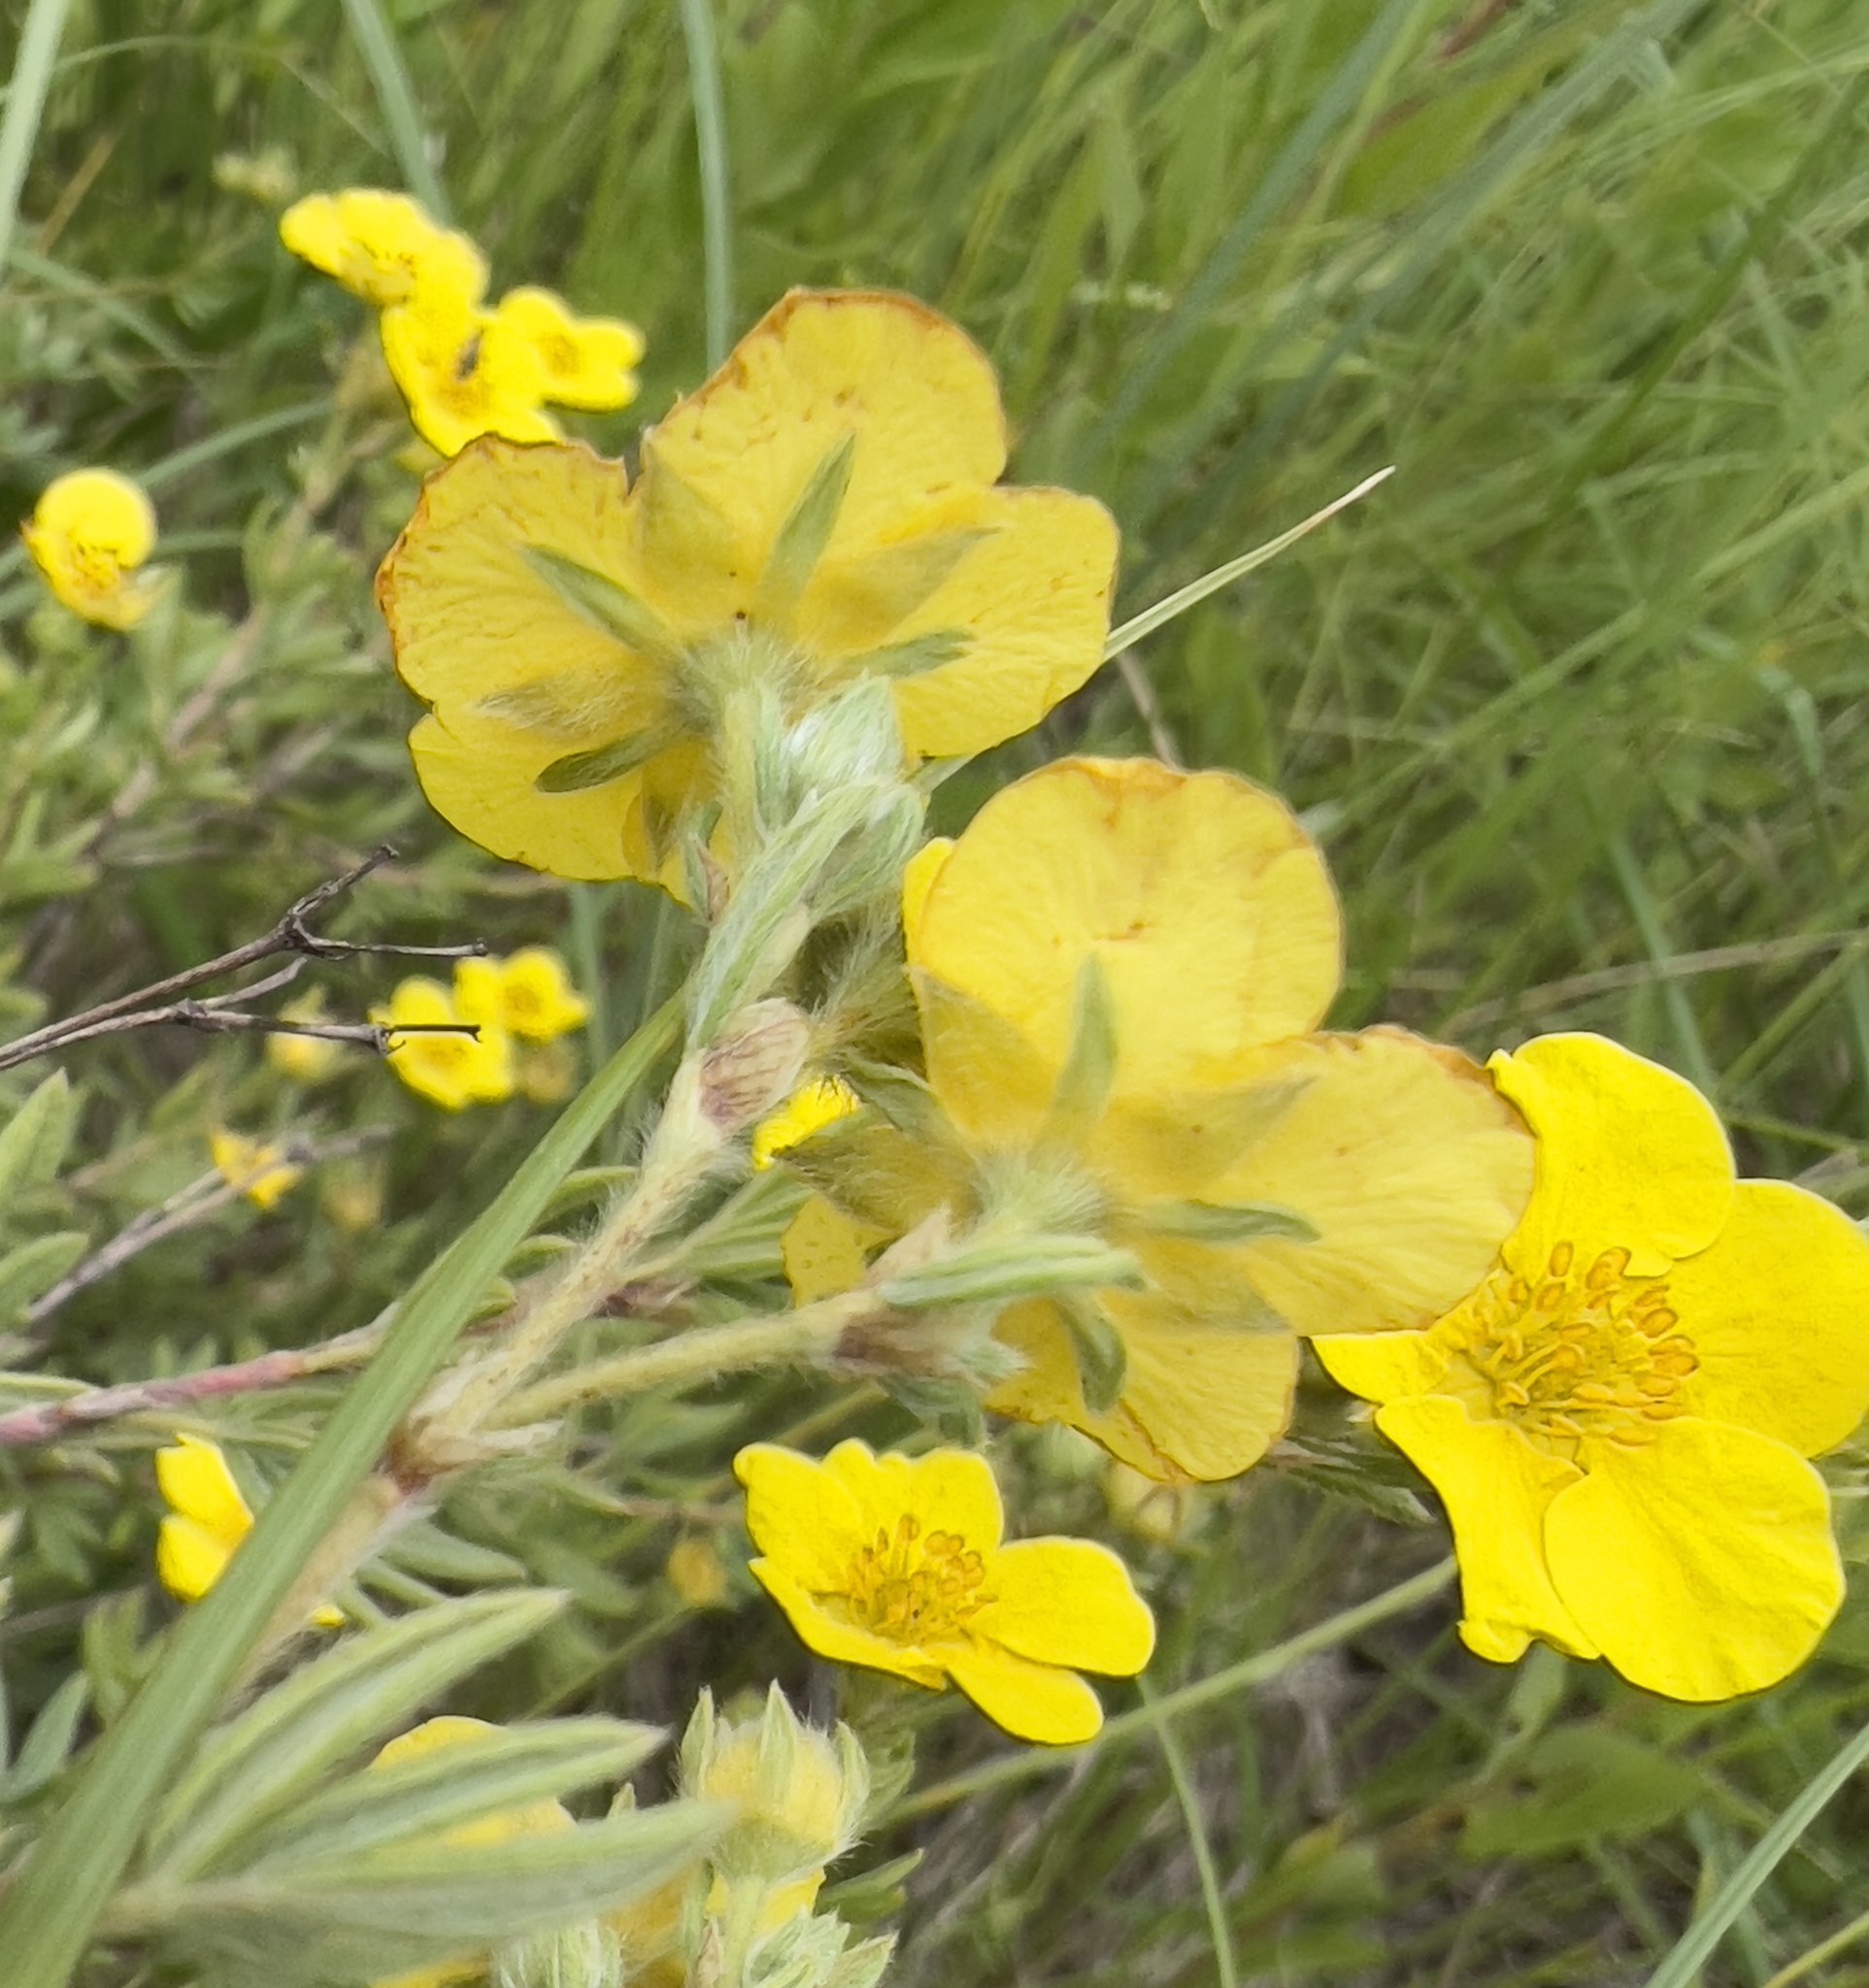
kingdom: Plantae
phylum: Tracheophyta
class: Magnoliopsida
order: Rosales
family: Rosaceae
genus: Dasiphora
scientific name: Dasiphora fruticosa
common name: Shrubby cinquefoil
